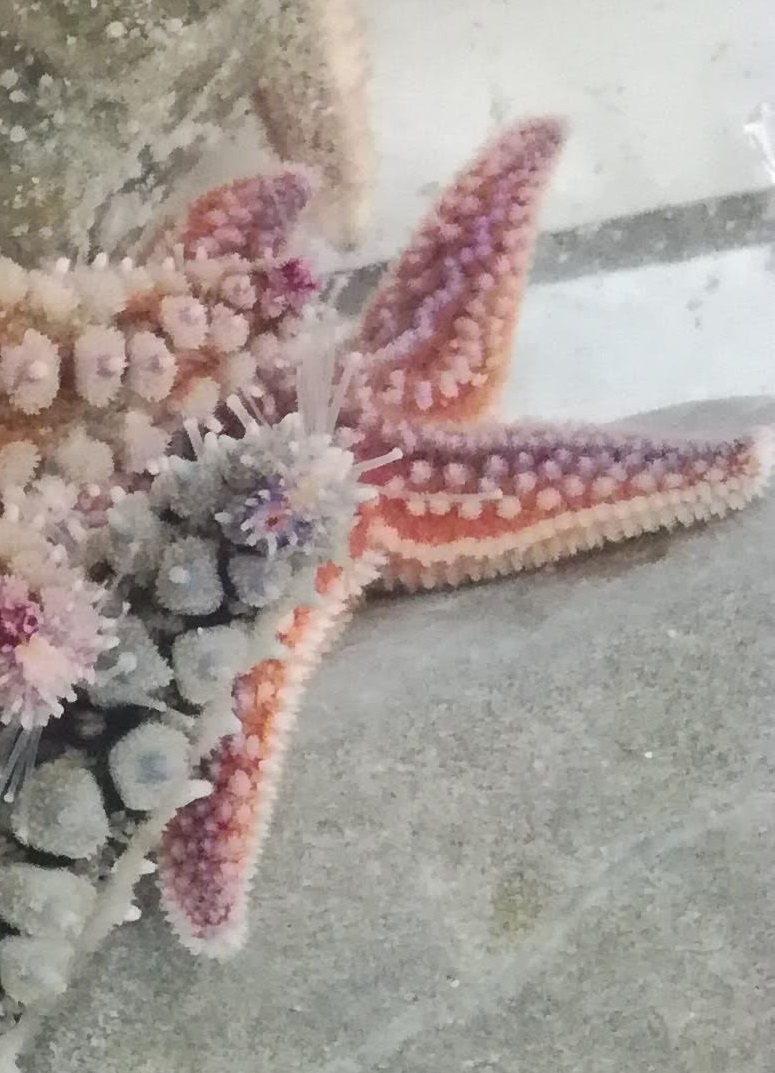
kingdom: Animalia
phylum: Echinodermata
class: Asteroidea
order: Forcipulatida
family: Asteriidae
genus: Asterias
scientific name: Asterias rubens
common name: Common starfish
